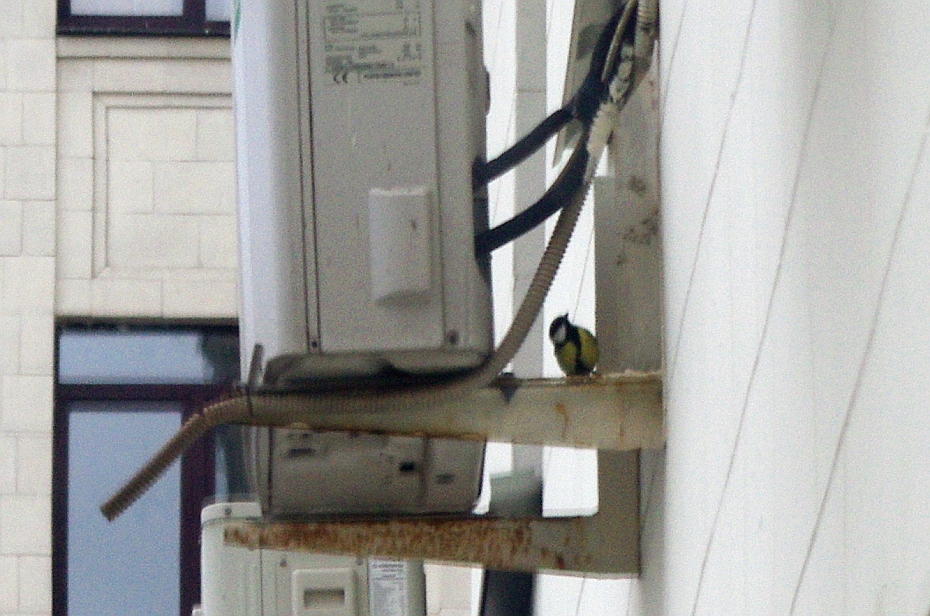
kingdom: Animalia
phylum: Chordata
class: Aves
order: Passeriformes
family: Paridae
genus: Parus
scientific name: Parus major
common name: Great tit
